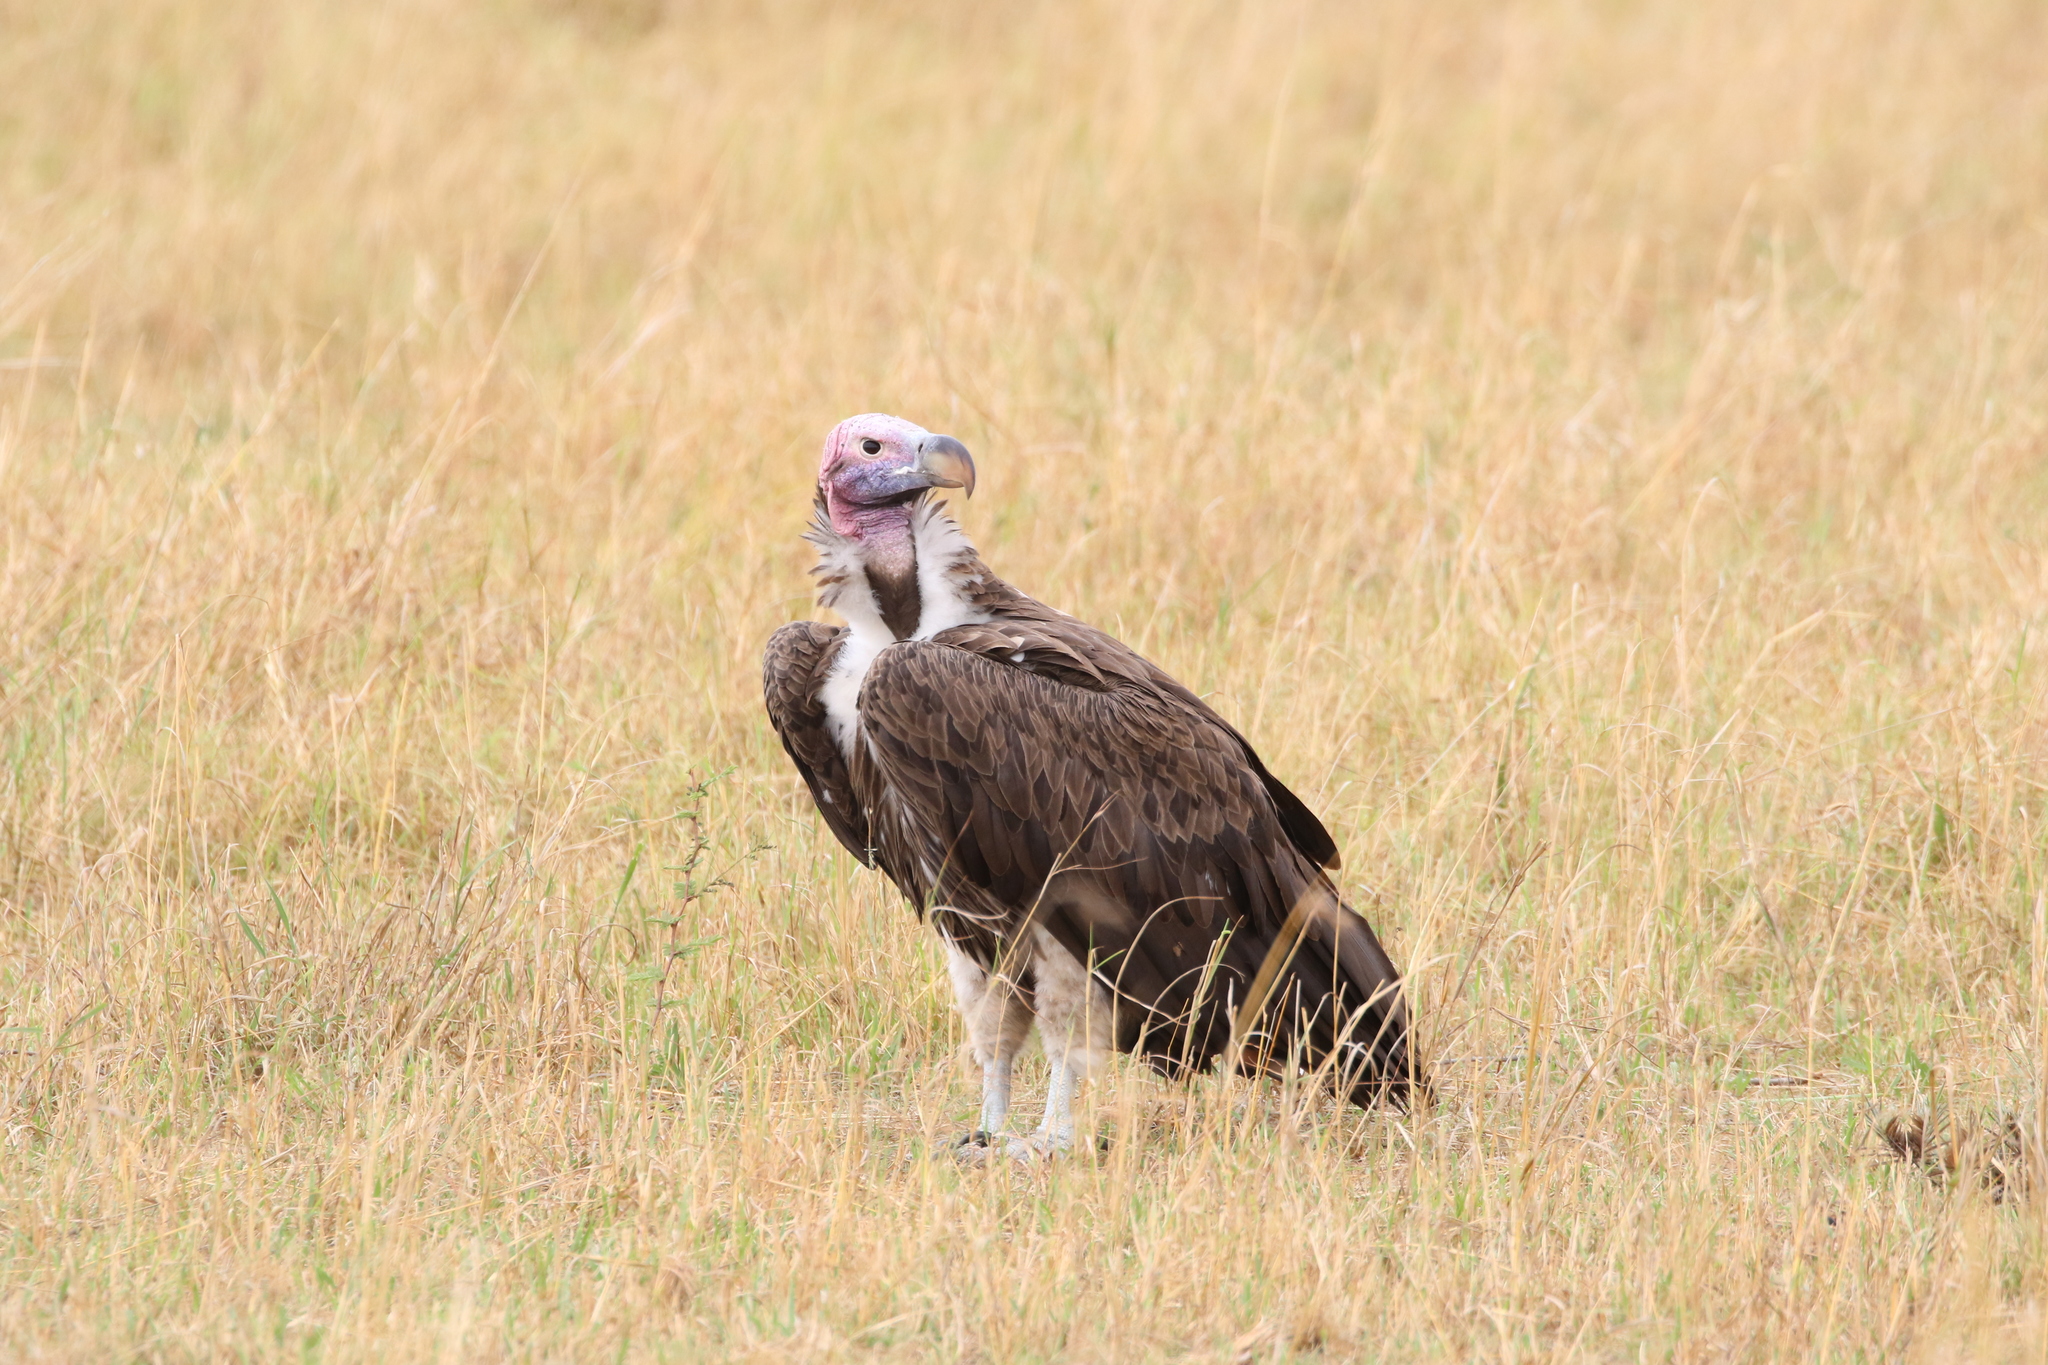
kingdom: Animalia
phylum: Chordata
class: Aves
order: Accipitriformes
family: Accipitridae
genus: Torgos
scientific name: Torgos tracheliotos
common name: Lappet-faced vulture
